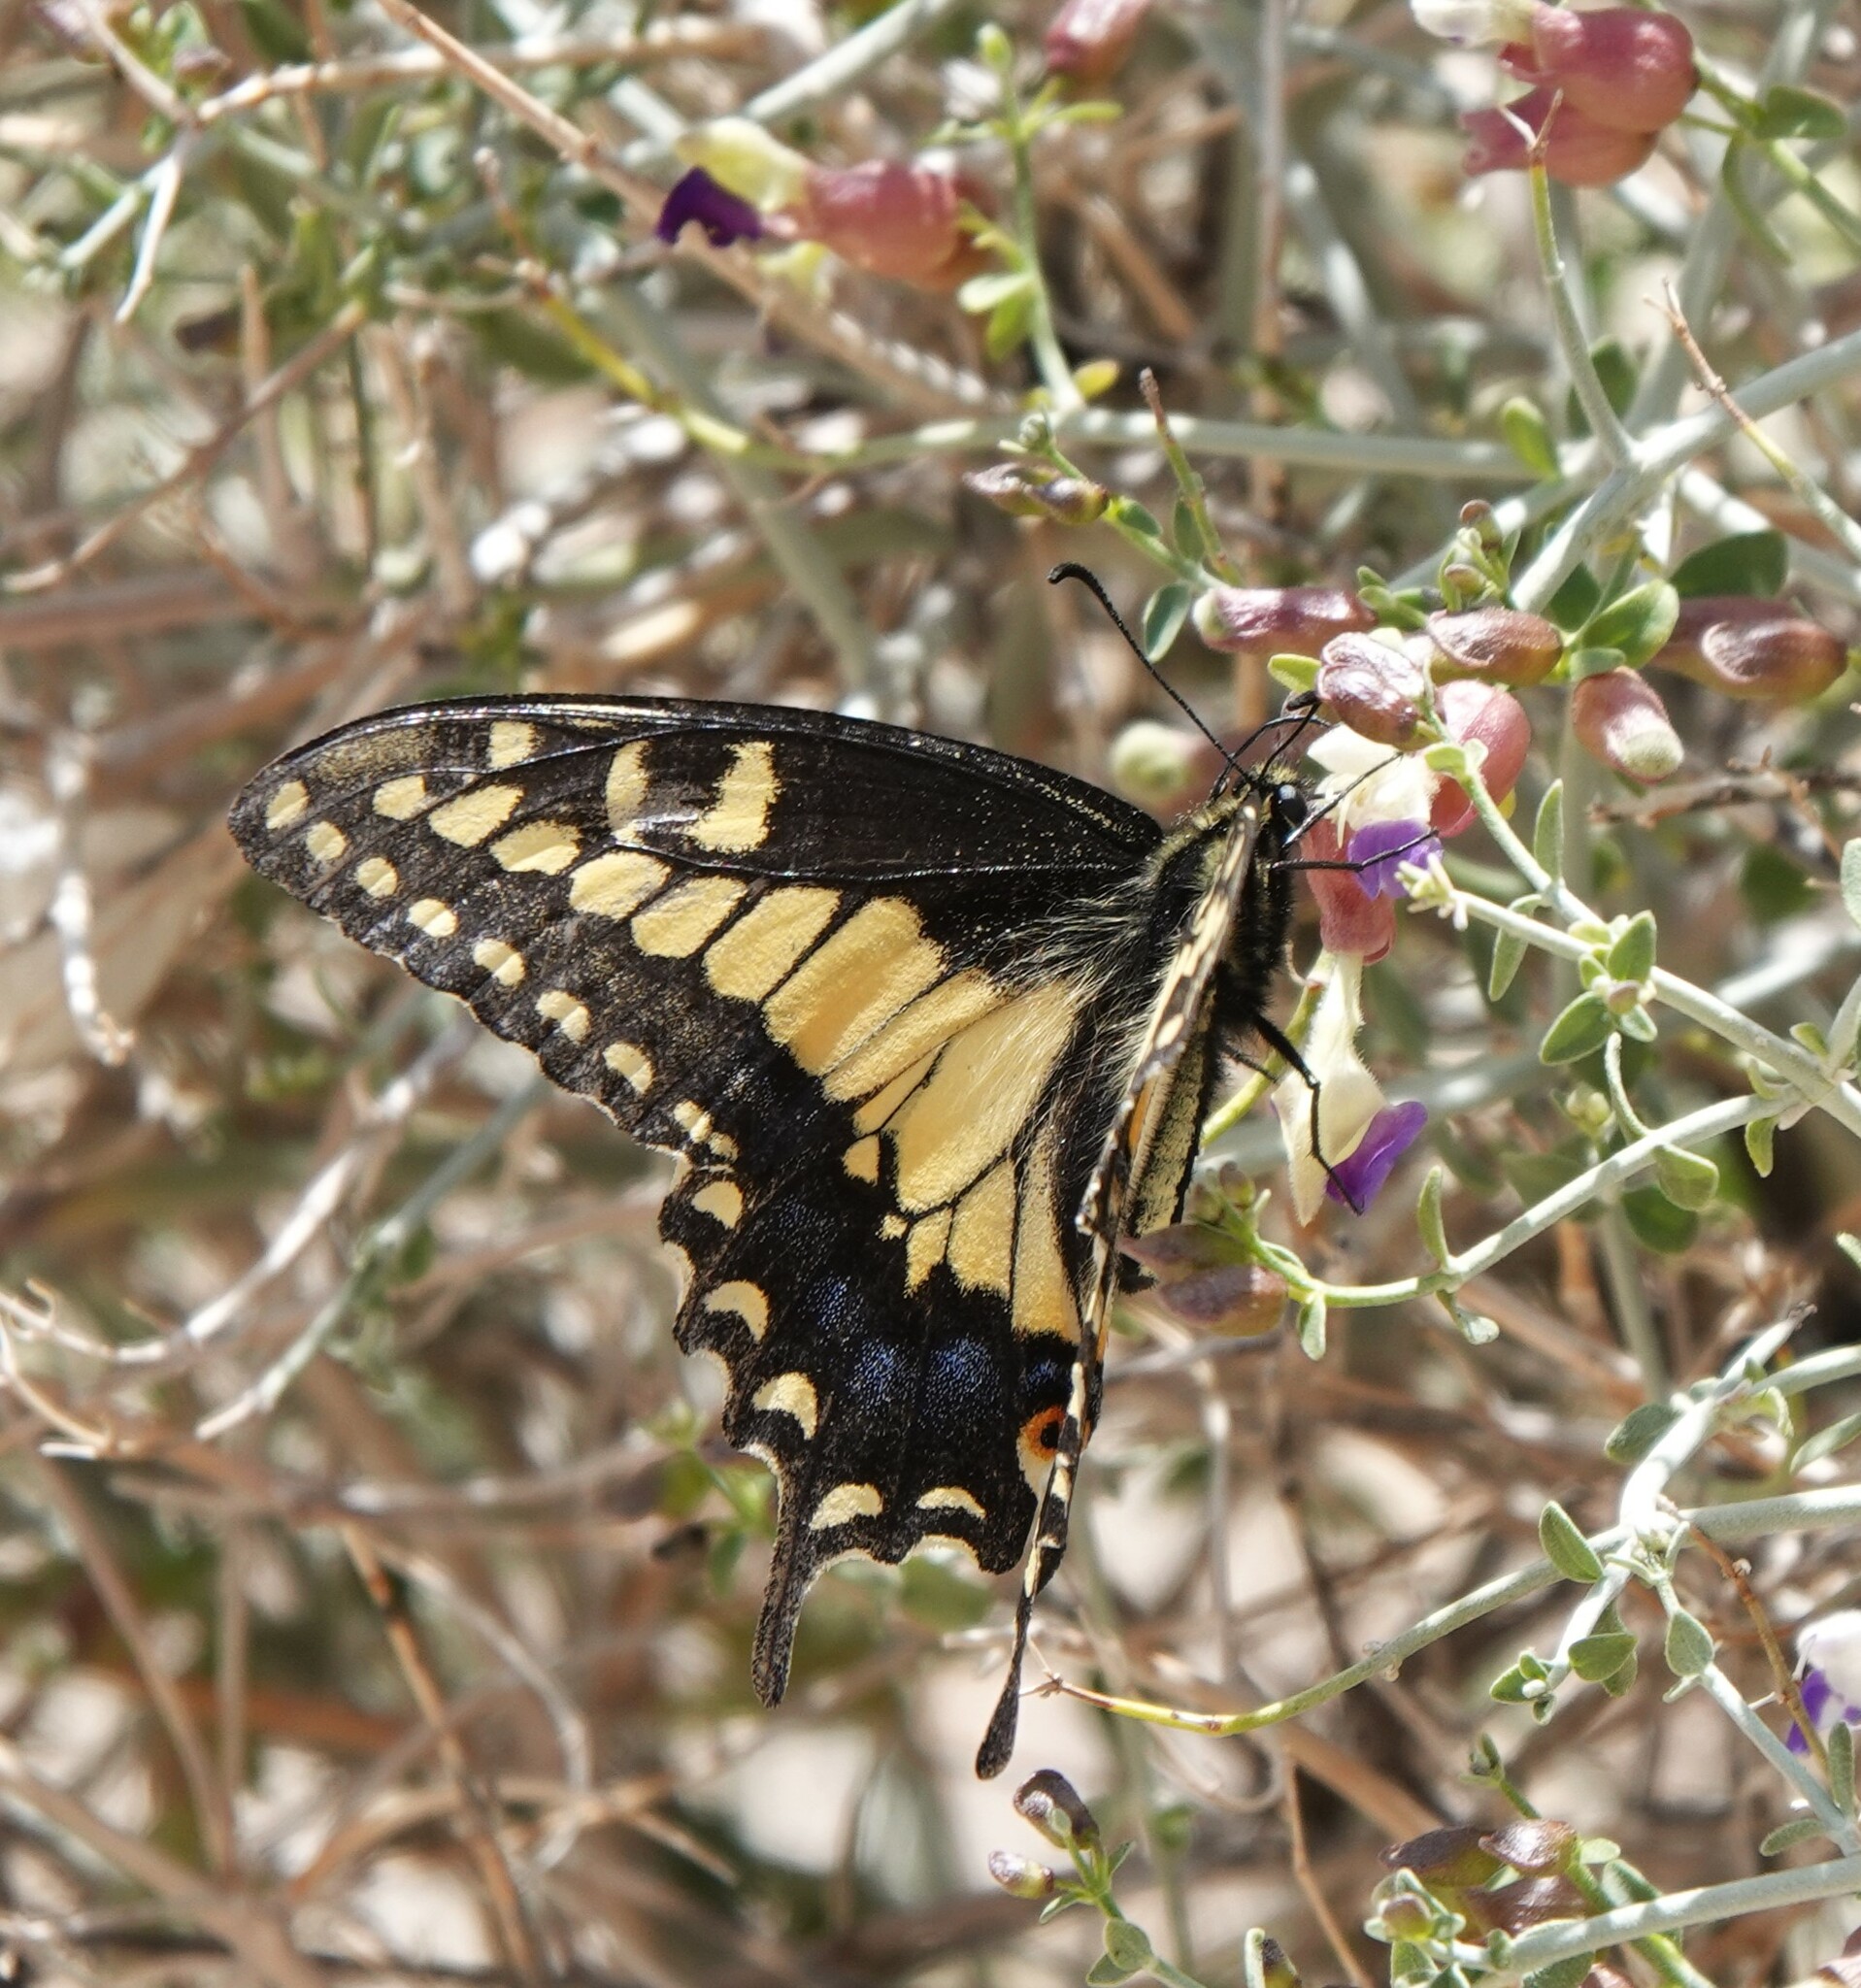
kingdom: Animalia
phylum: Arthropoda
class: Insecta
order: Lepidoptera
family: Papilionidae
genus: Papilio
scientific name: Papilio polyxenes
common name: Black swallowtail
